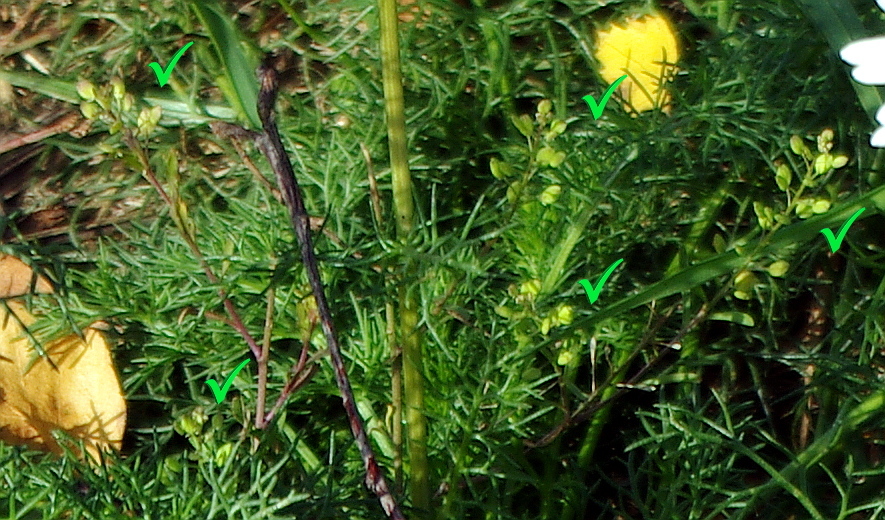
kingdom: Plantae
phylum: Tracheophyta
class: Magnoliopsida
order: Brassicales
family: Brassicaceae
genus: Lepidium
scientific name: Lepidium ruderale
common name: Narrow-leaved pepperwort
